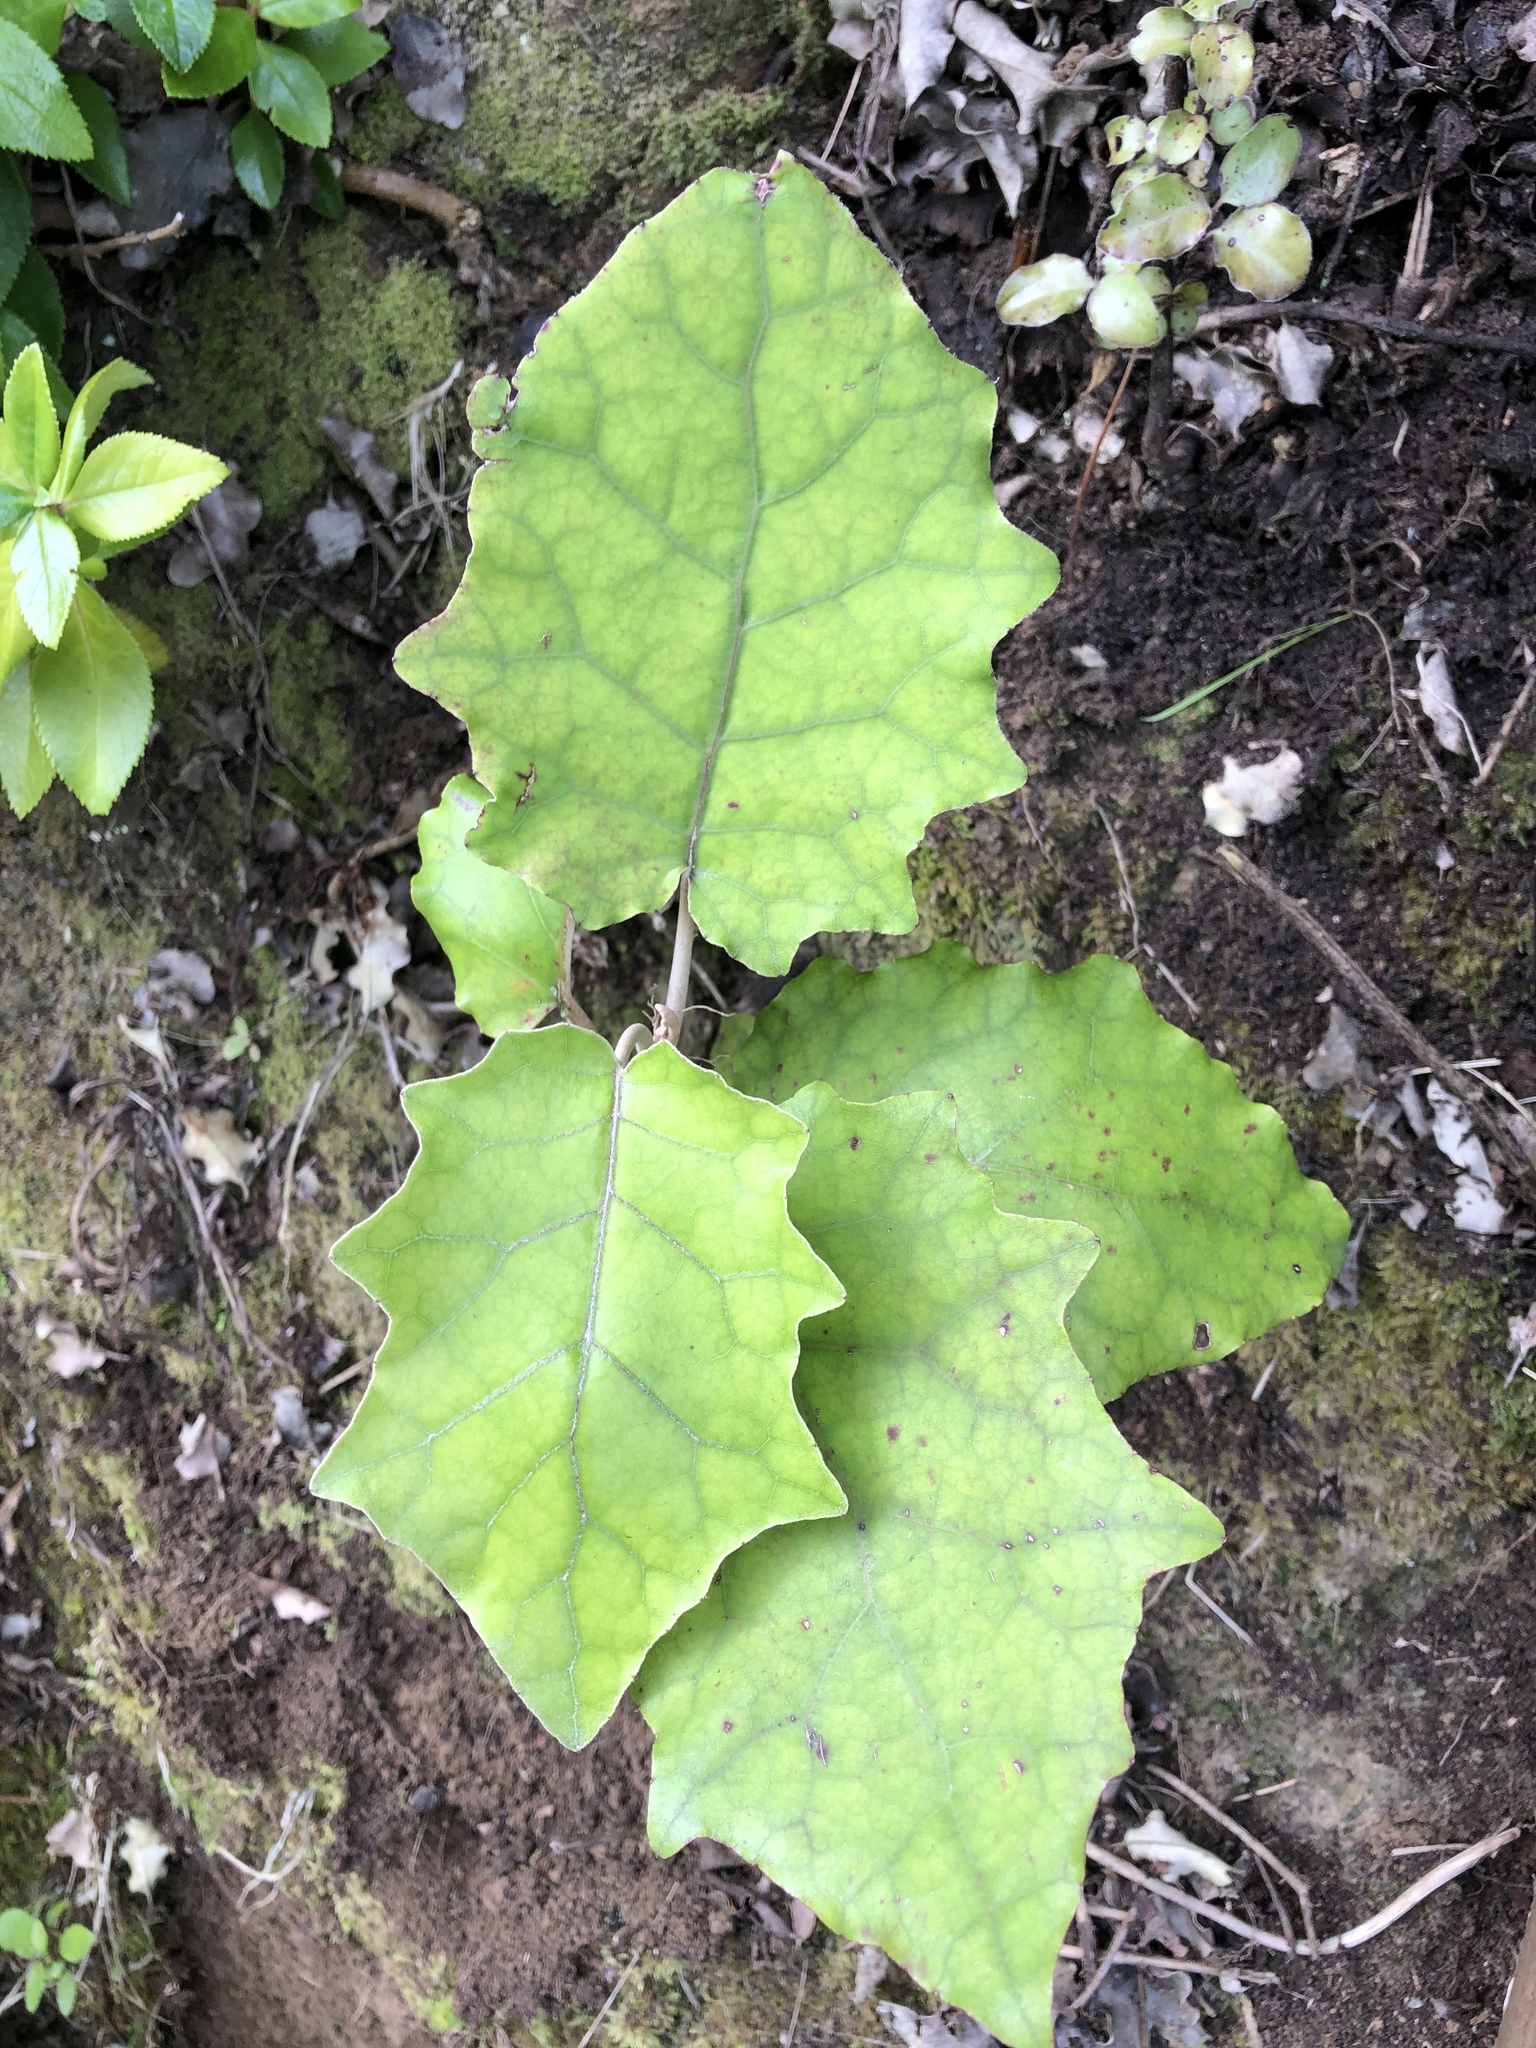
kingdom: Plantae
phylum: Tracheophyta
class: Magnoliopsida
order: Asterales
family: Asteraceae
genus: Brachyglottis
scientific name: Brachyglottis repanda
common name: Hedge ragwort
